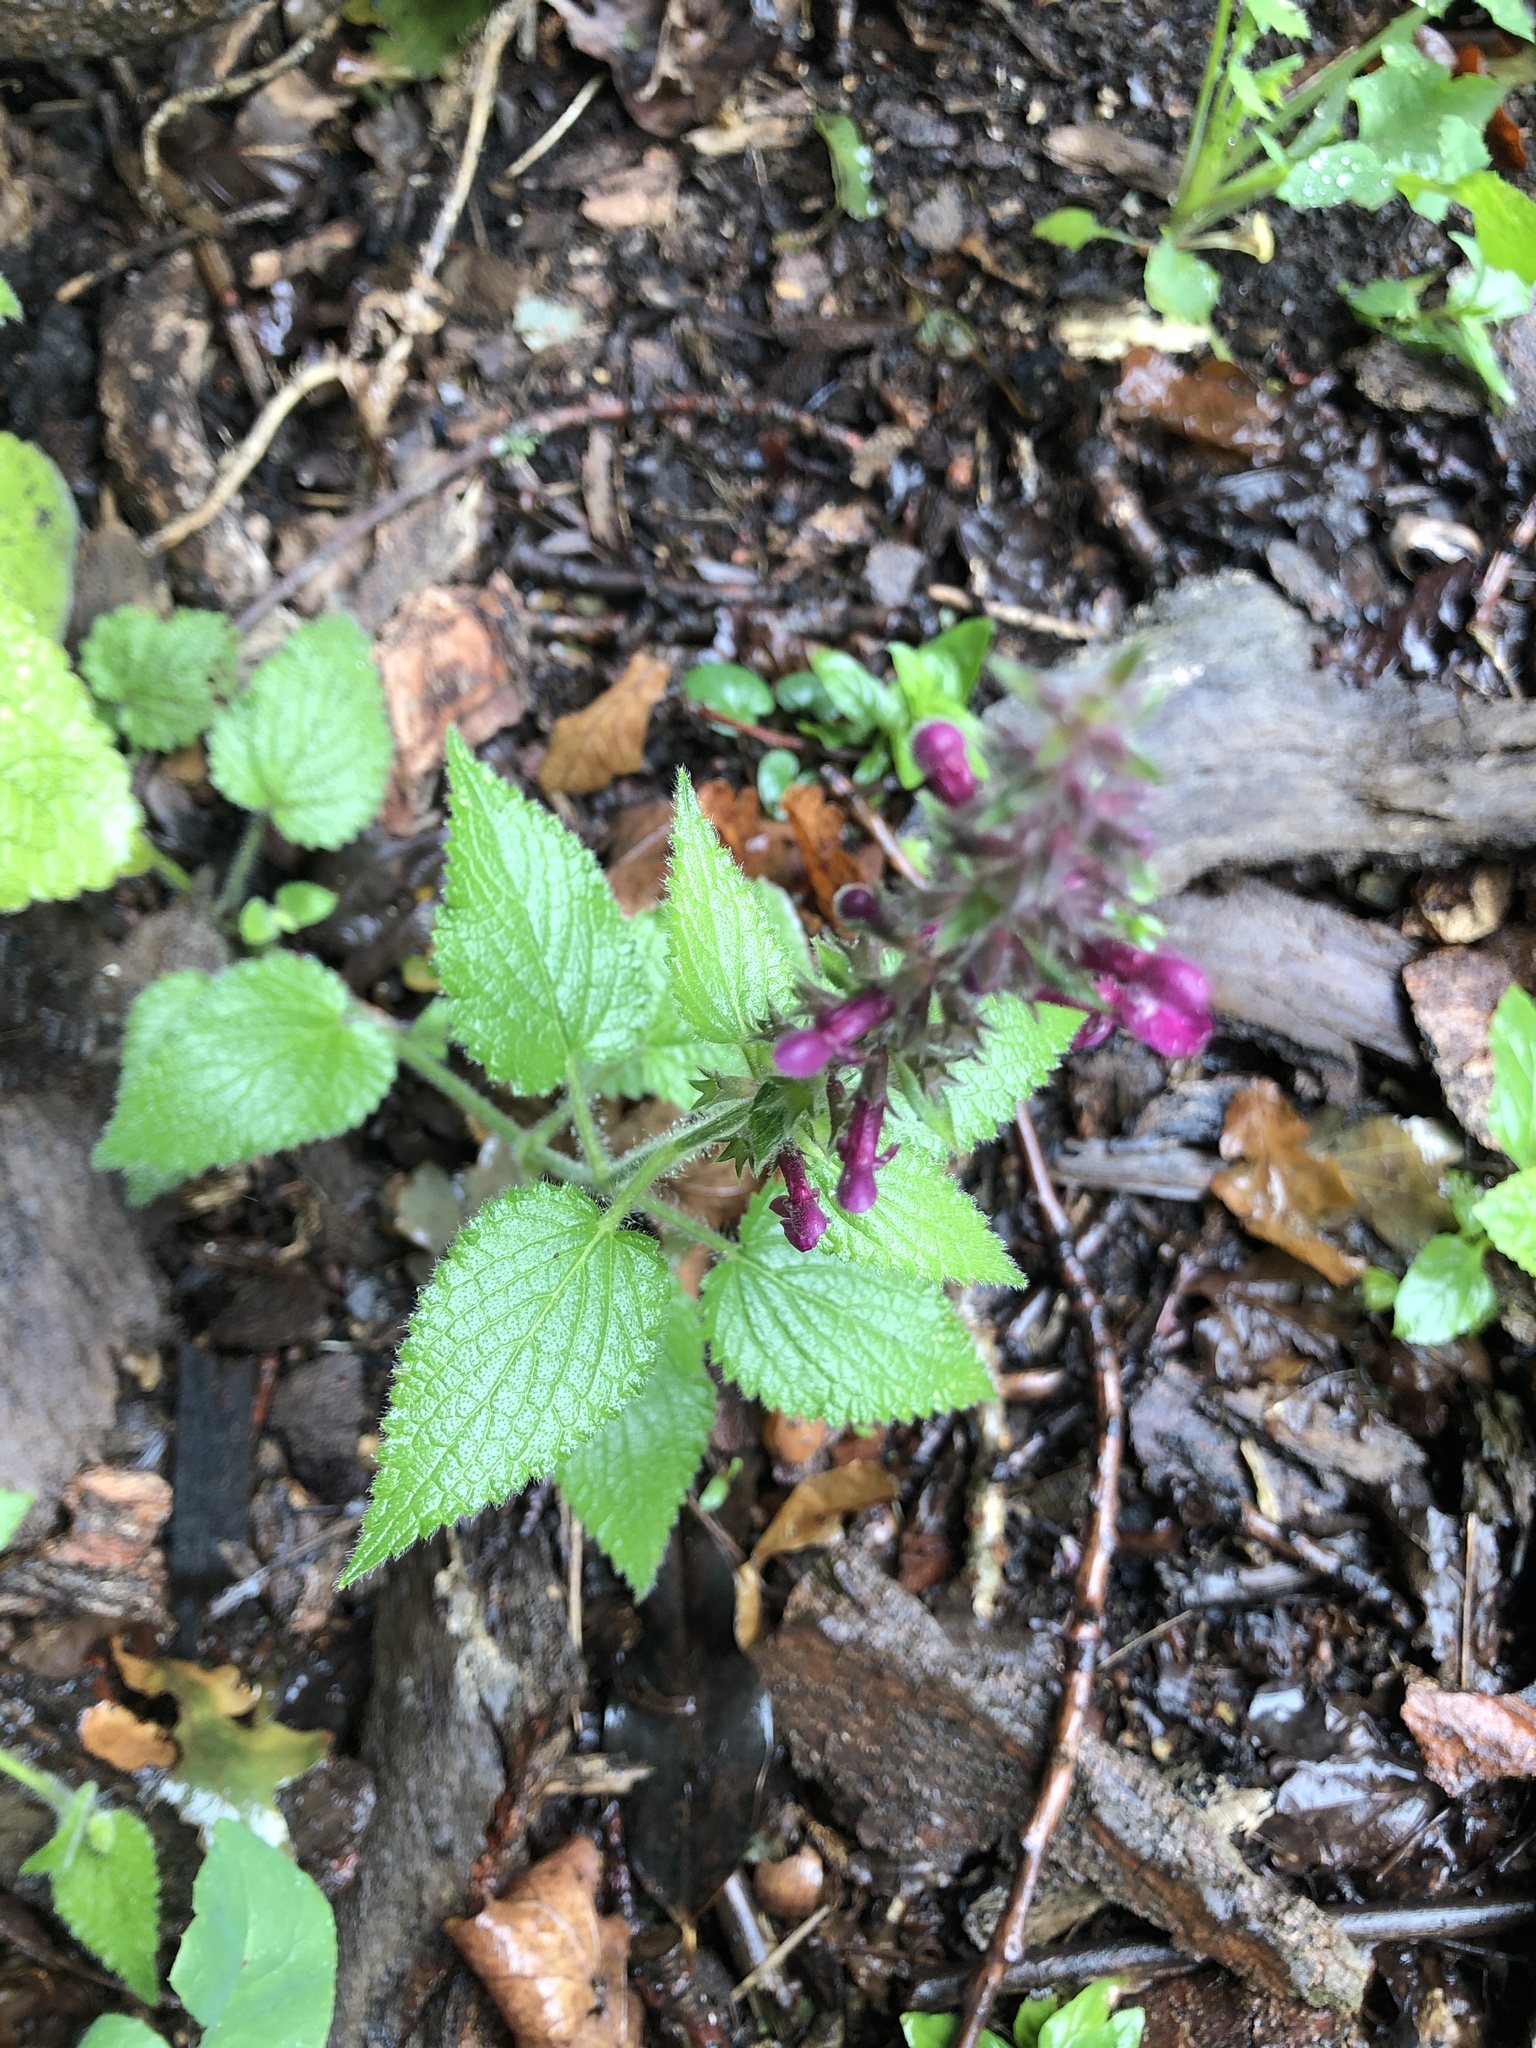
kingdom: Plantae
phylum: Tracheophyta
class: Magnoliopsida
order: Lamiales
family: Lamiaceae
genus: Stachys
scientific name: Stachys sylvatica
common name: Hedge woundwort
